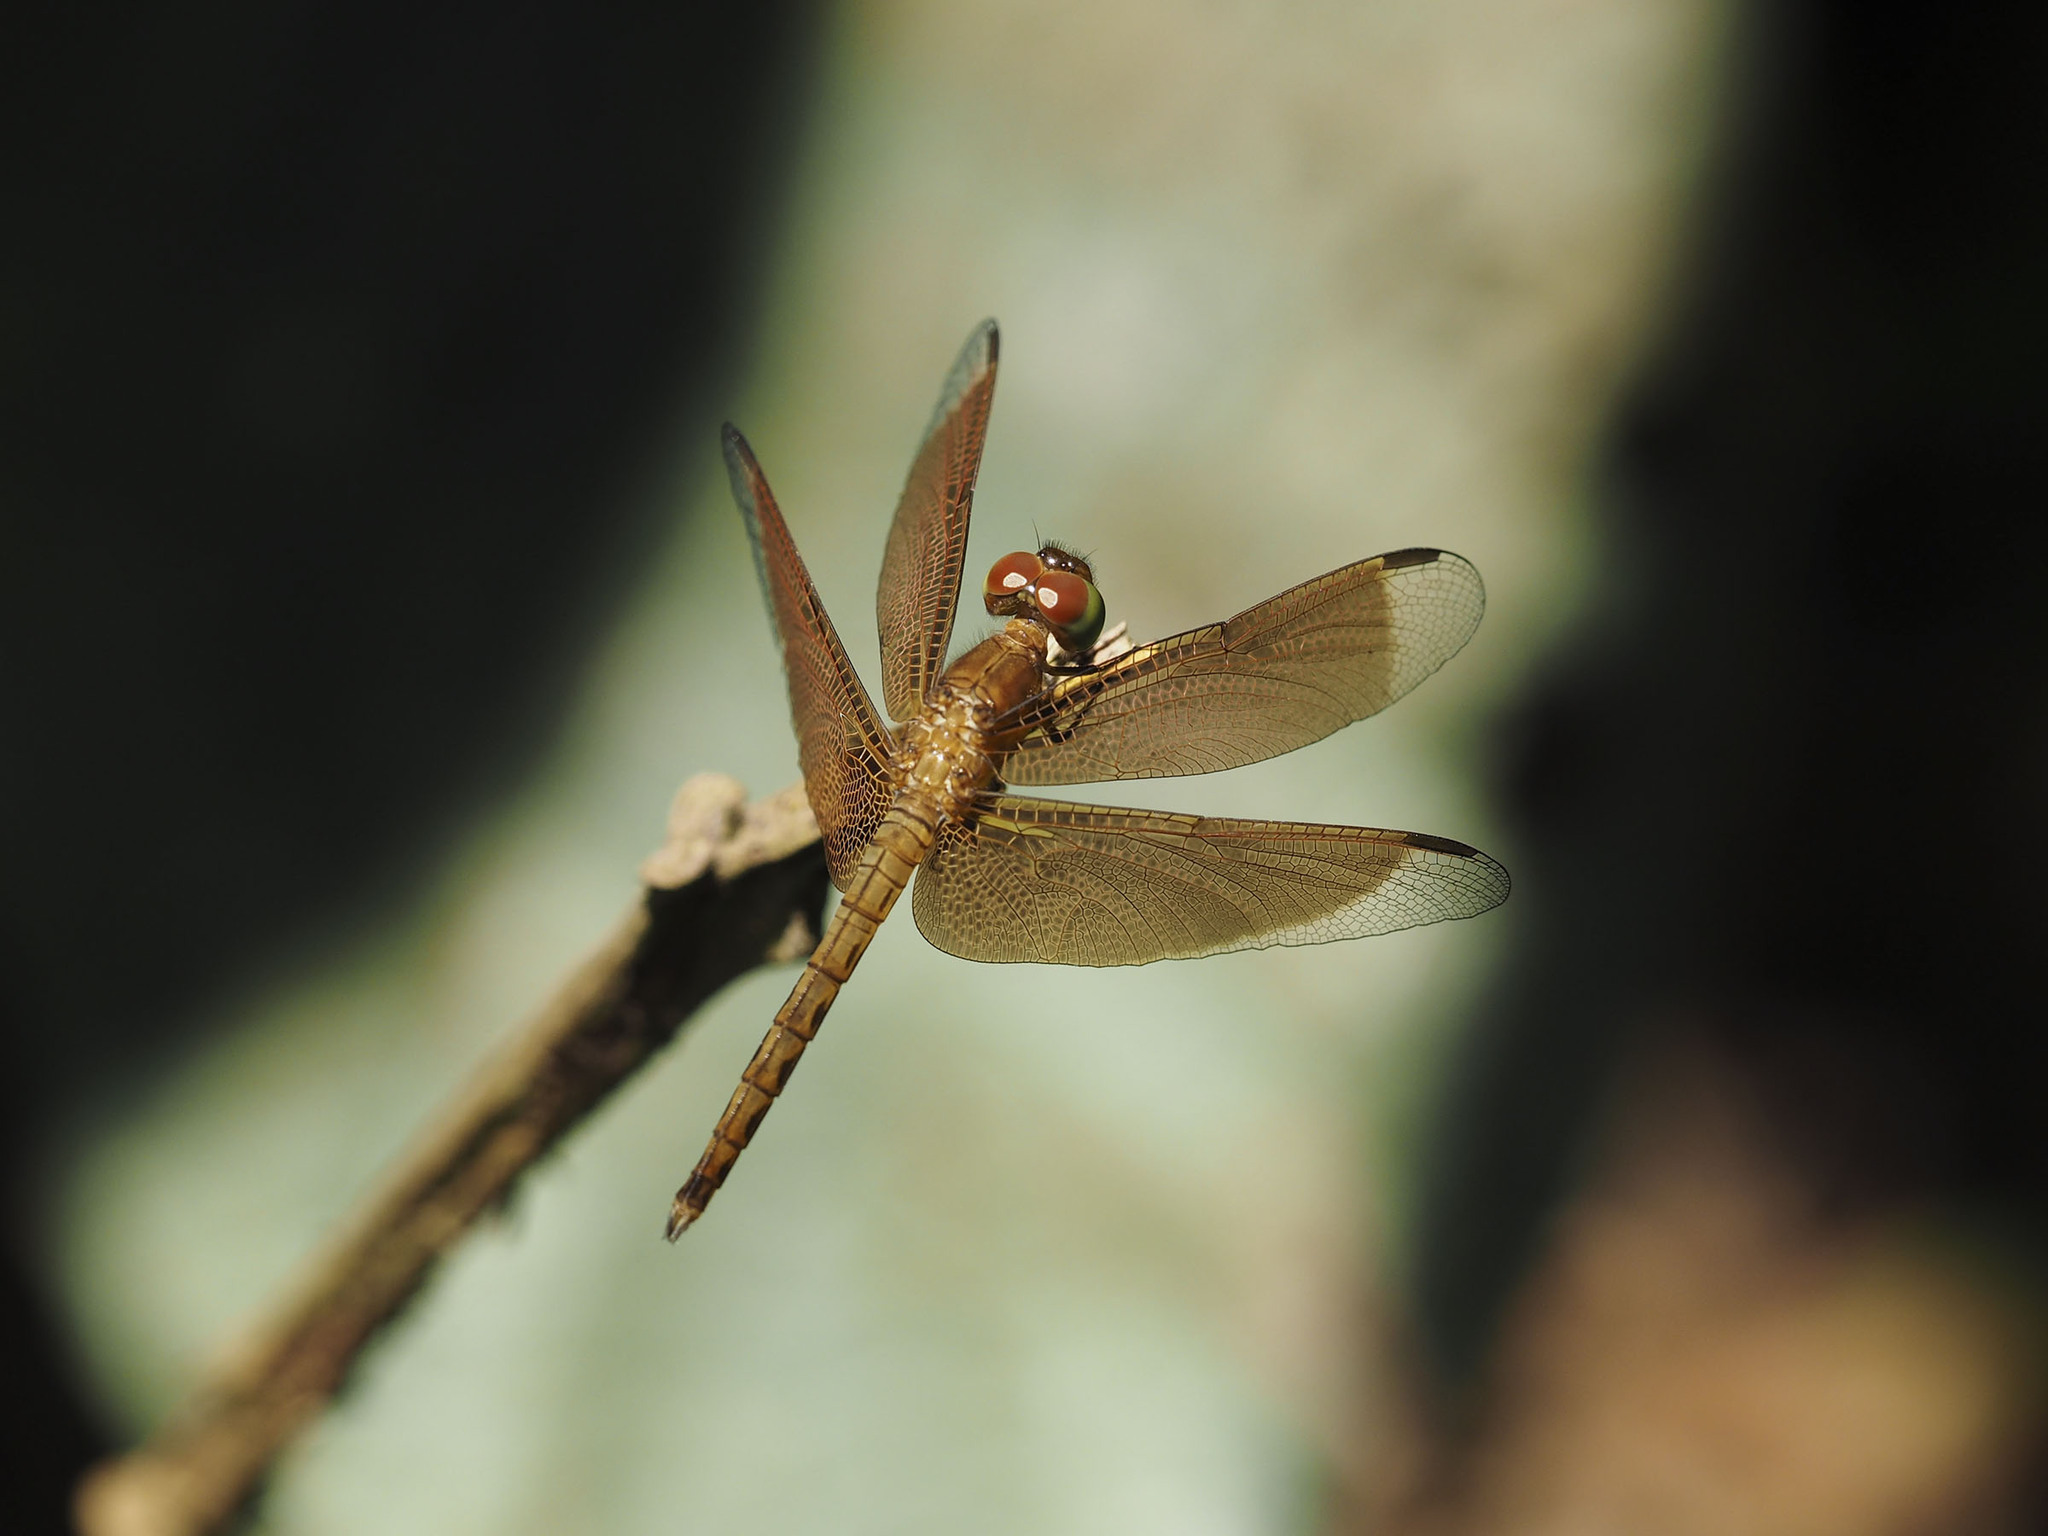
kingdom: Animalia
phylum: Arthropoda
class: Insecta
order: Odonata
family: Libellulidae
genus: Neurothemis
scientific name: Neurothemis fluctuans
